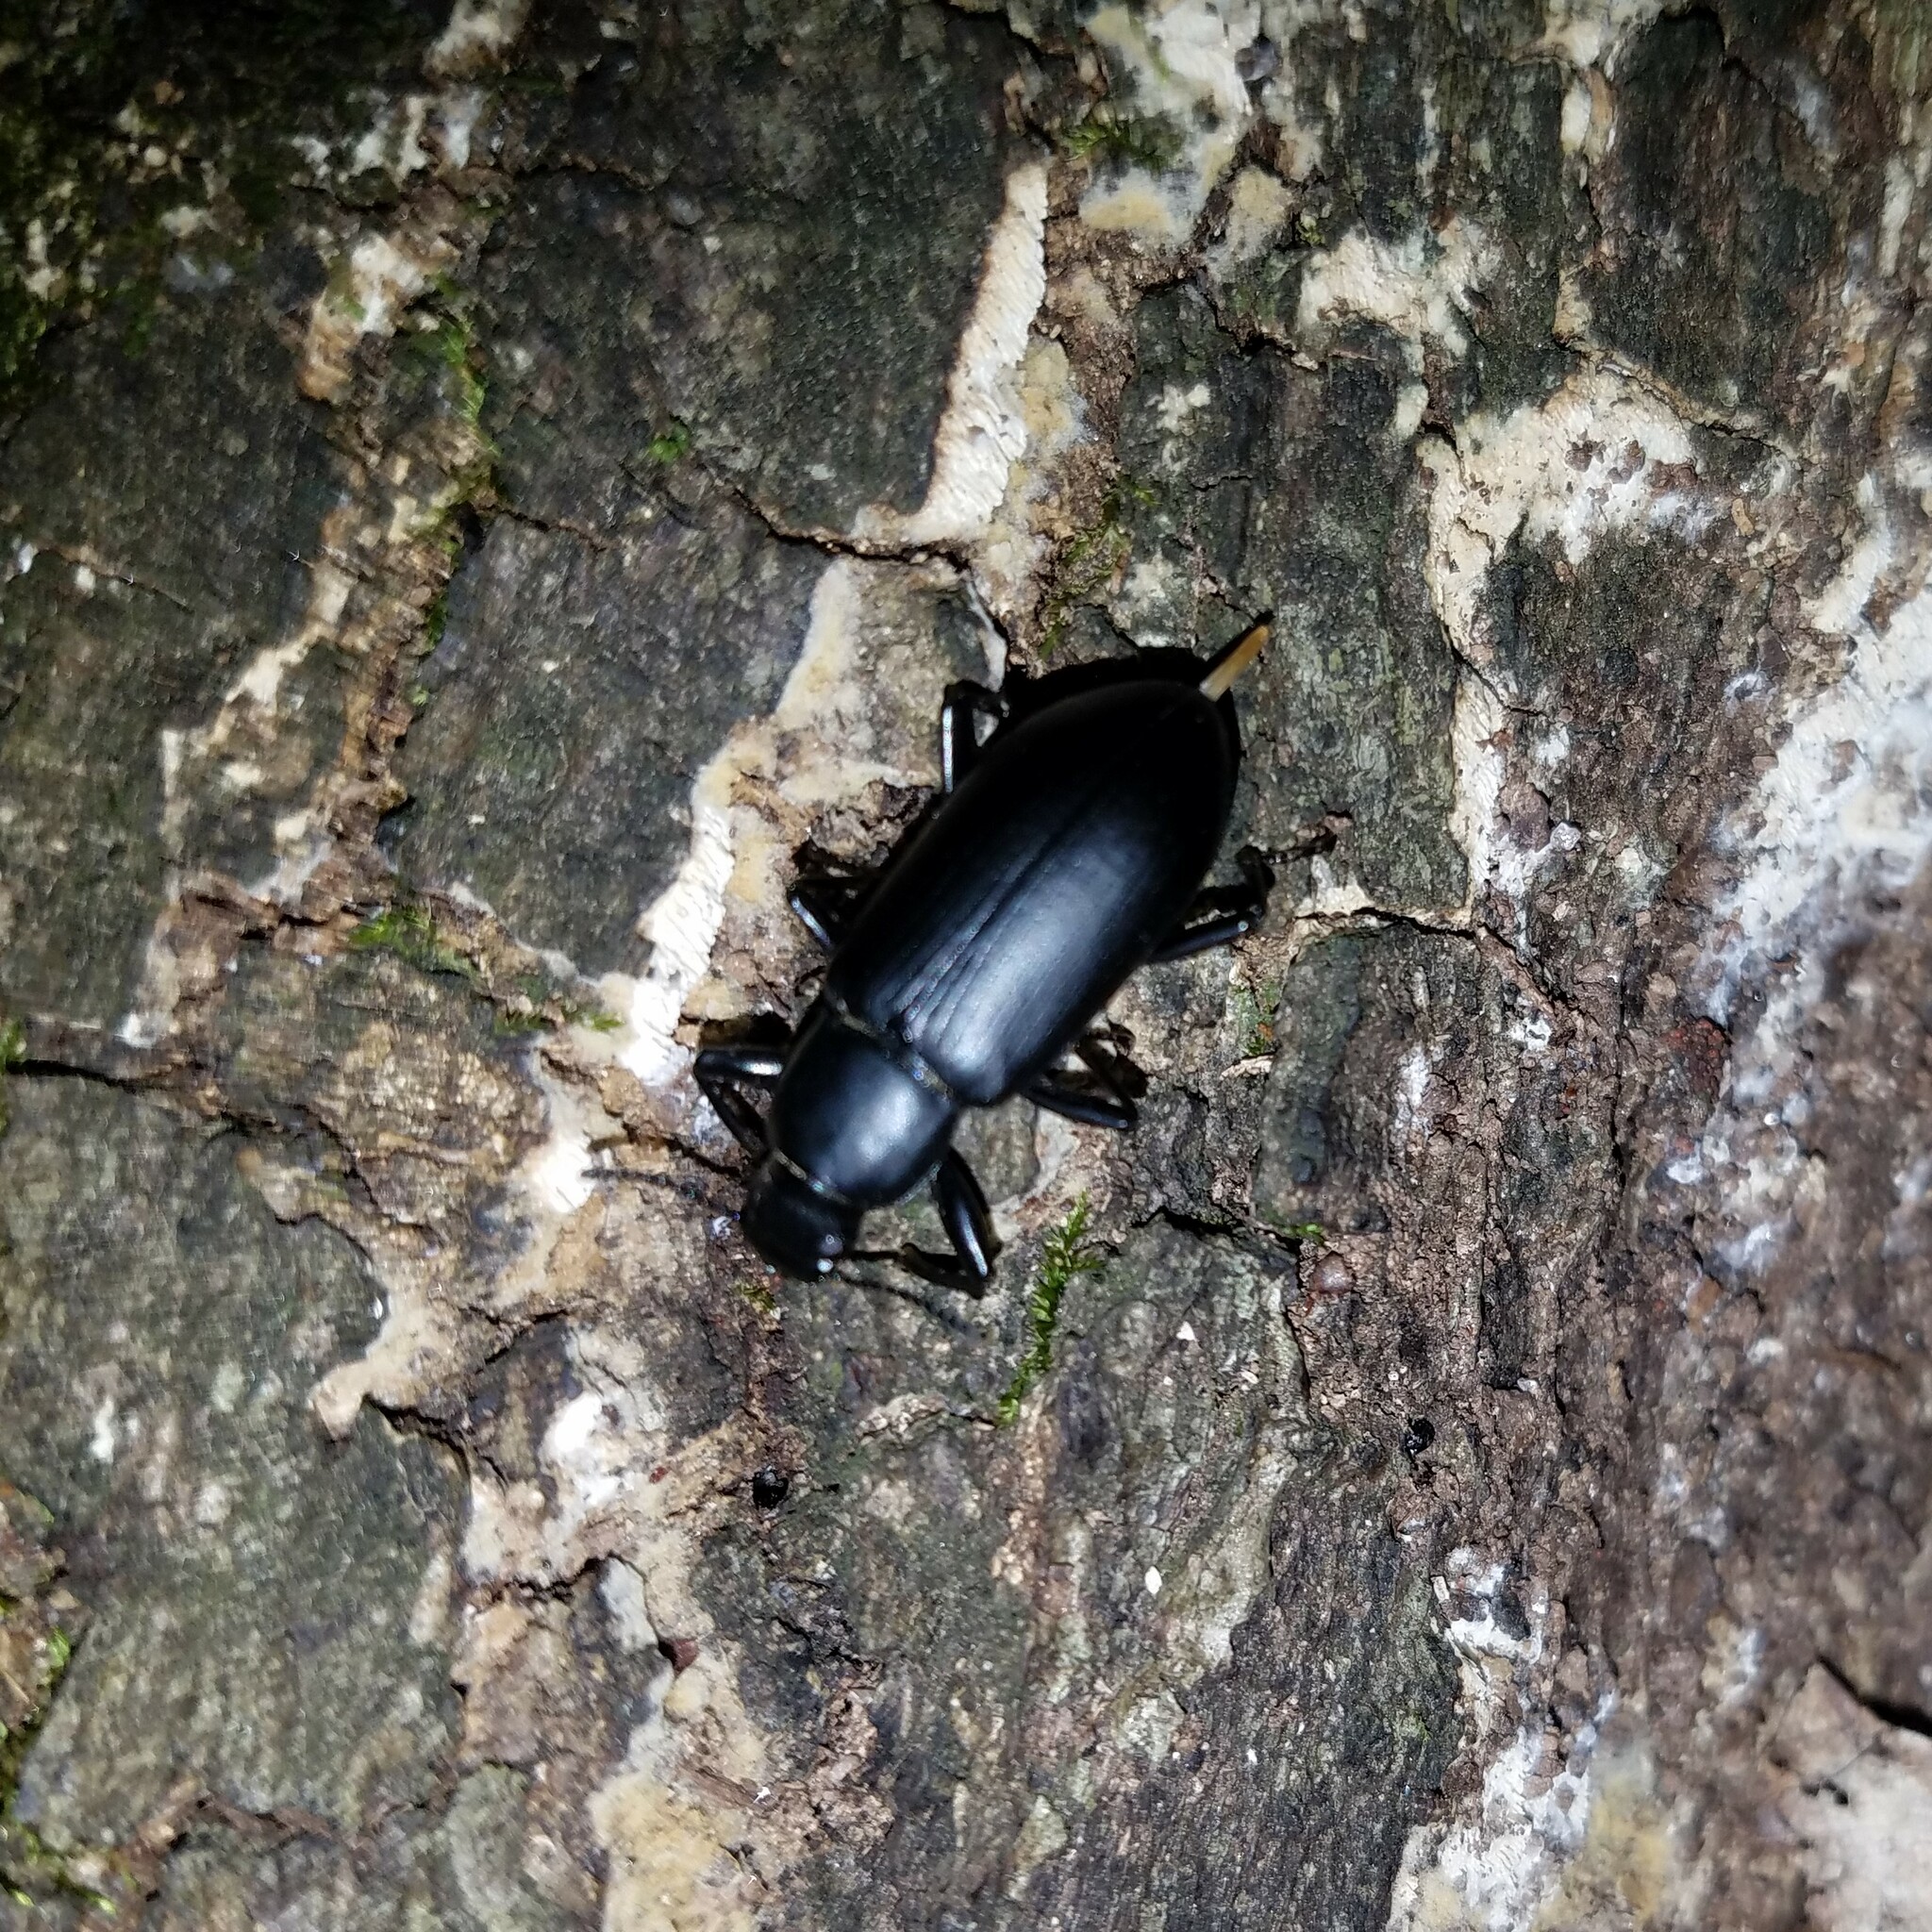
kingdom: Animalia
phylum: Arthropoda
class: Insecta
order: Coleoptera
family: Tenebrionidae
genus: Alobates
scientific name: Alobates pensylvanicus
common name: False mealworm beetle
